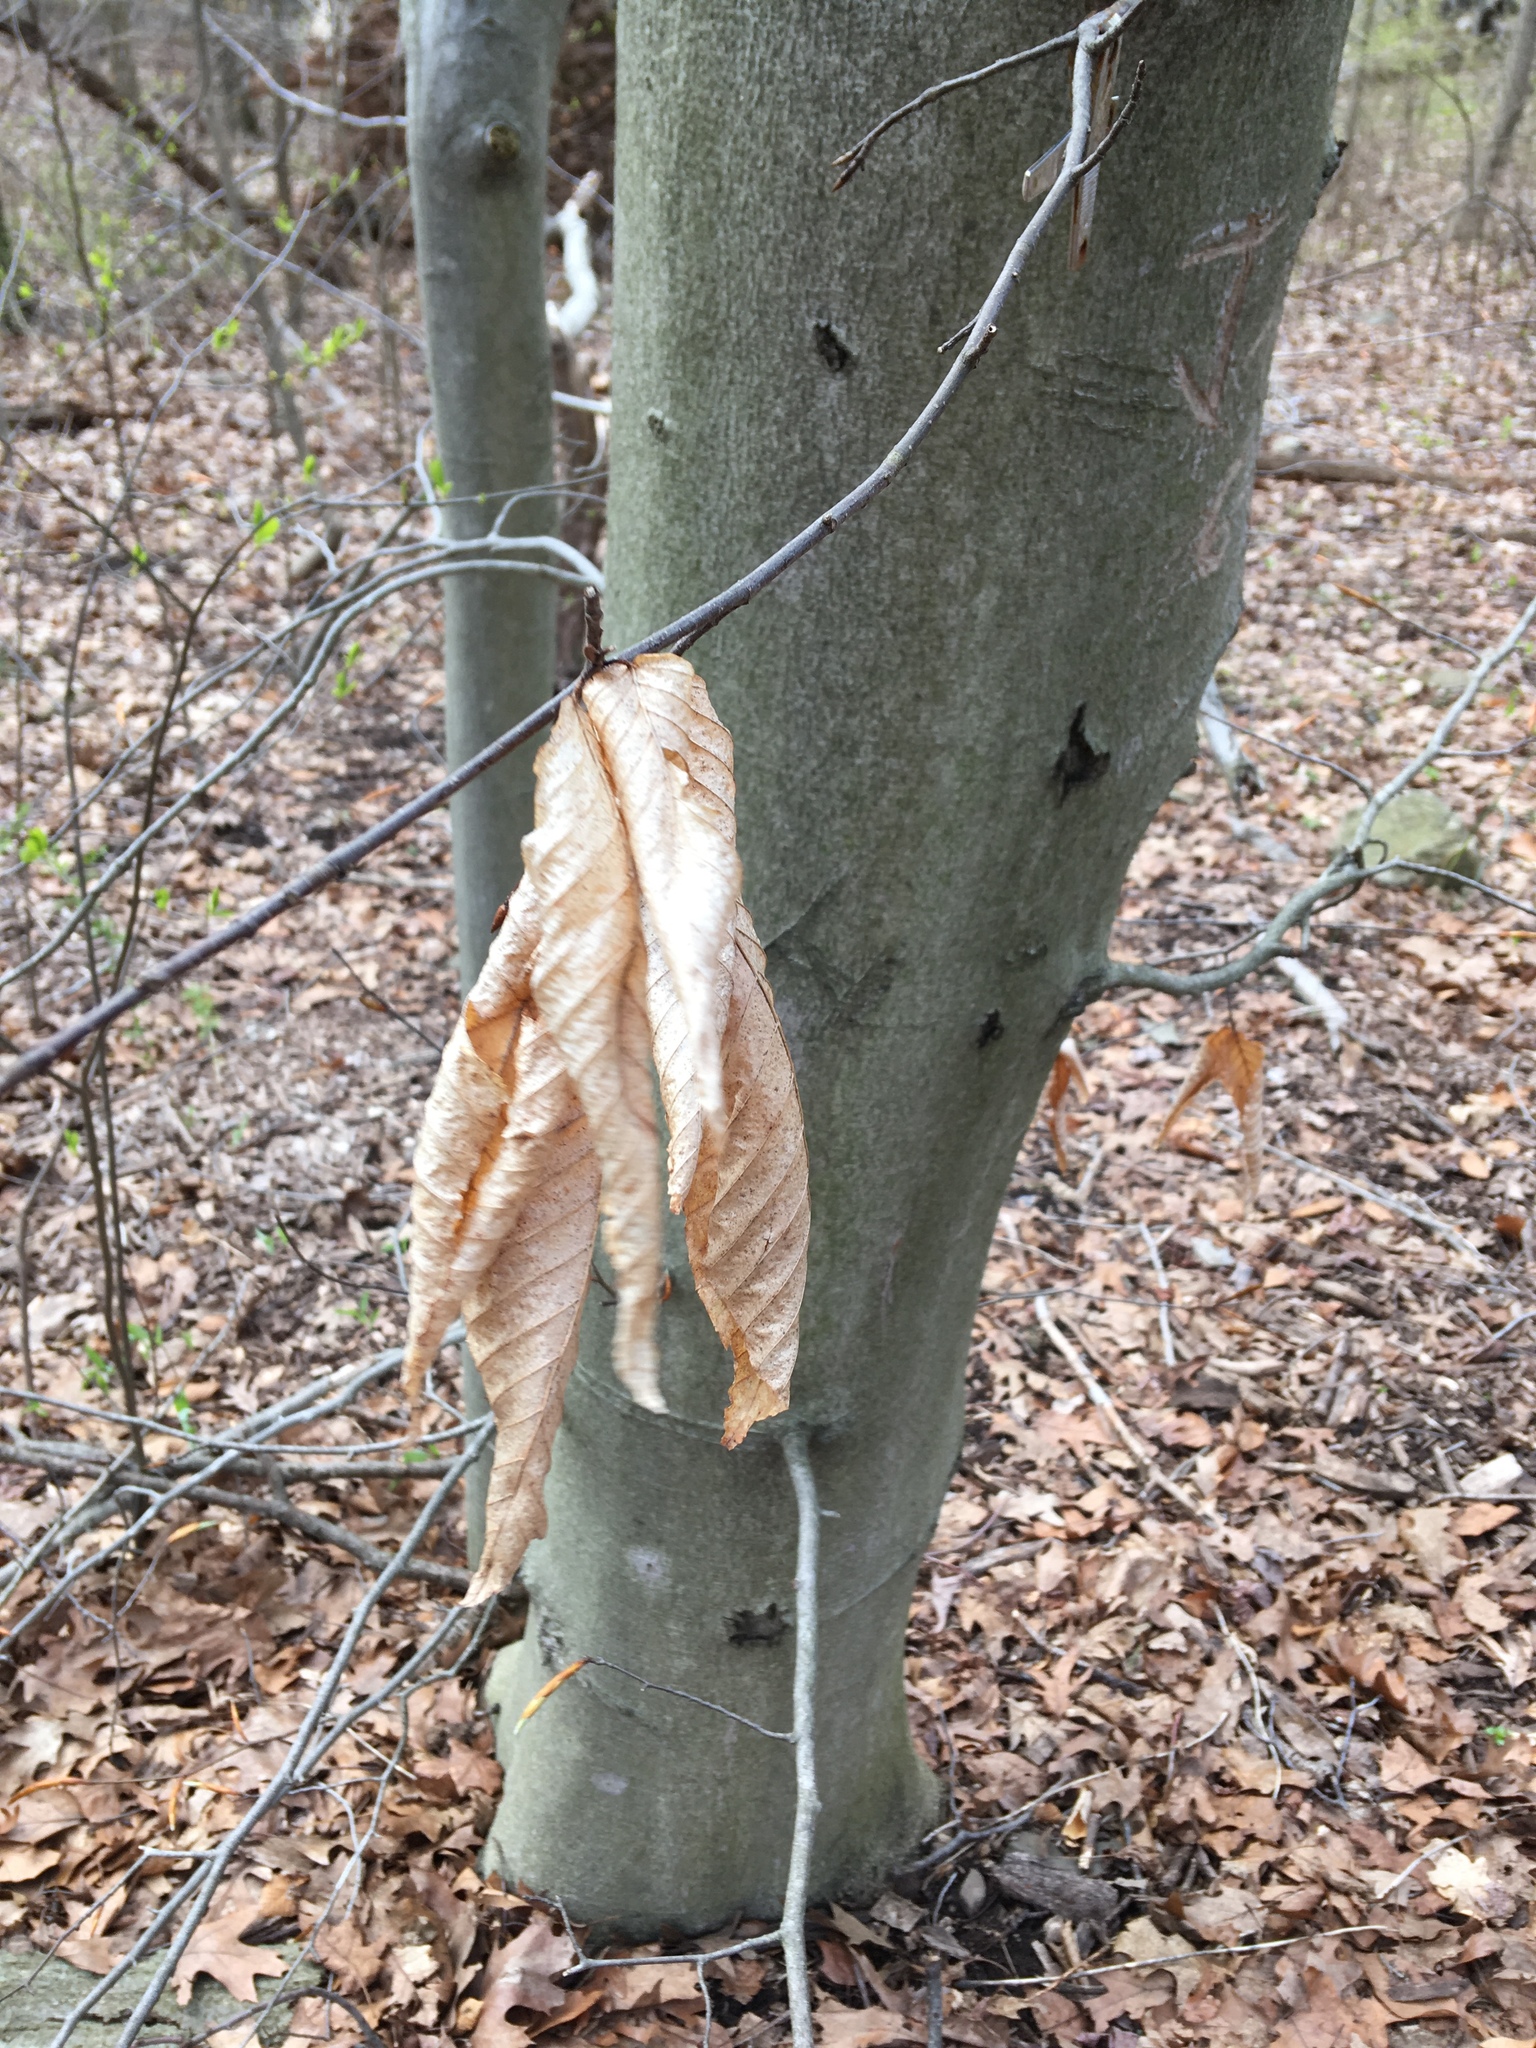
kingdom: Plantae
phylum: Tracheophyta
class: Magnoliopsida
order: Fagales
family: Fagaceae
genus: Fagus
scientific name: Fagus grandifolia
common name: American beech
